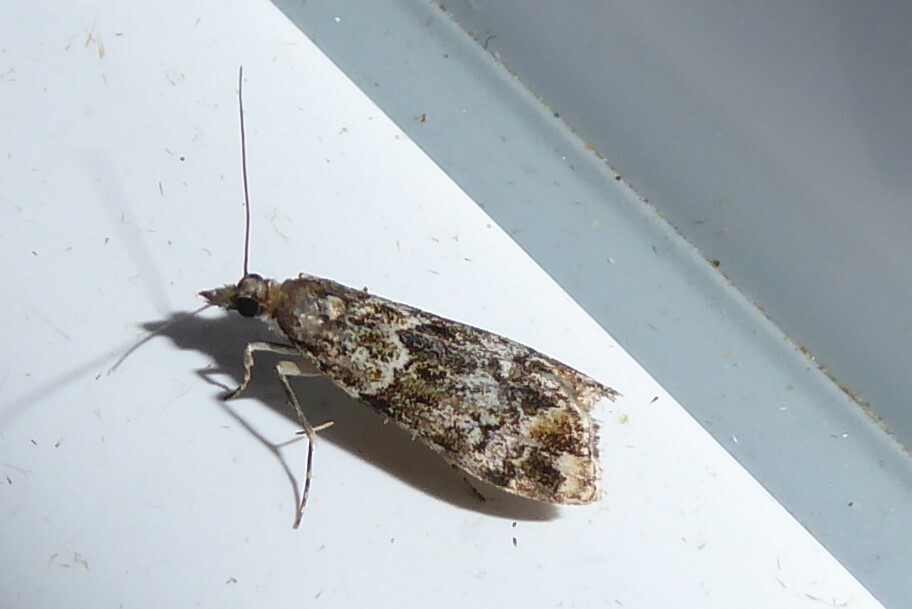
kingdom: Animalia
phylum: Arthropoda
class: Insecta
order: Lepidoptera
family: Crambidae
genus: Eudonia
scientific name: Eudonia minualis
